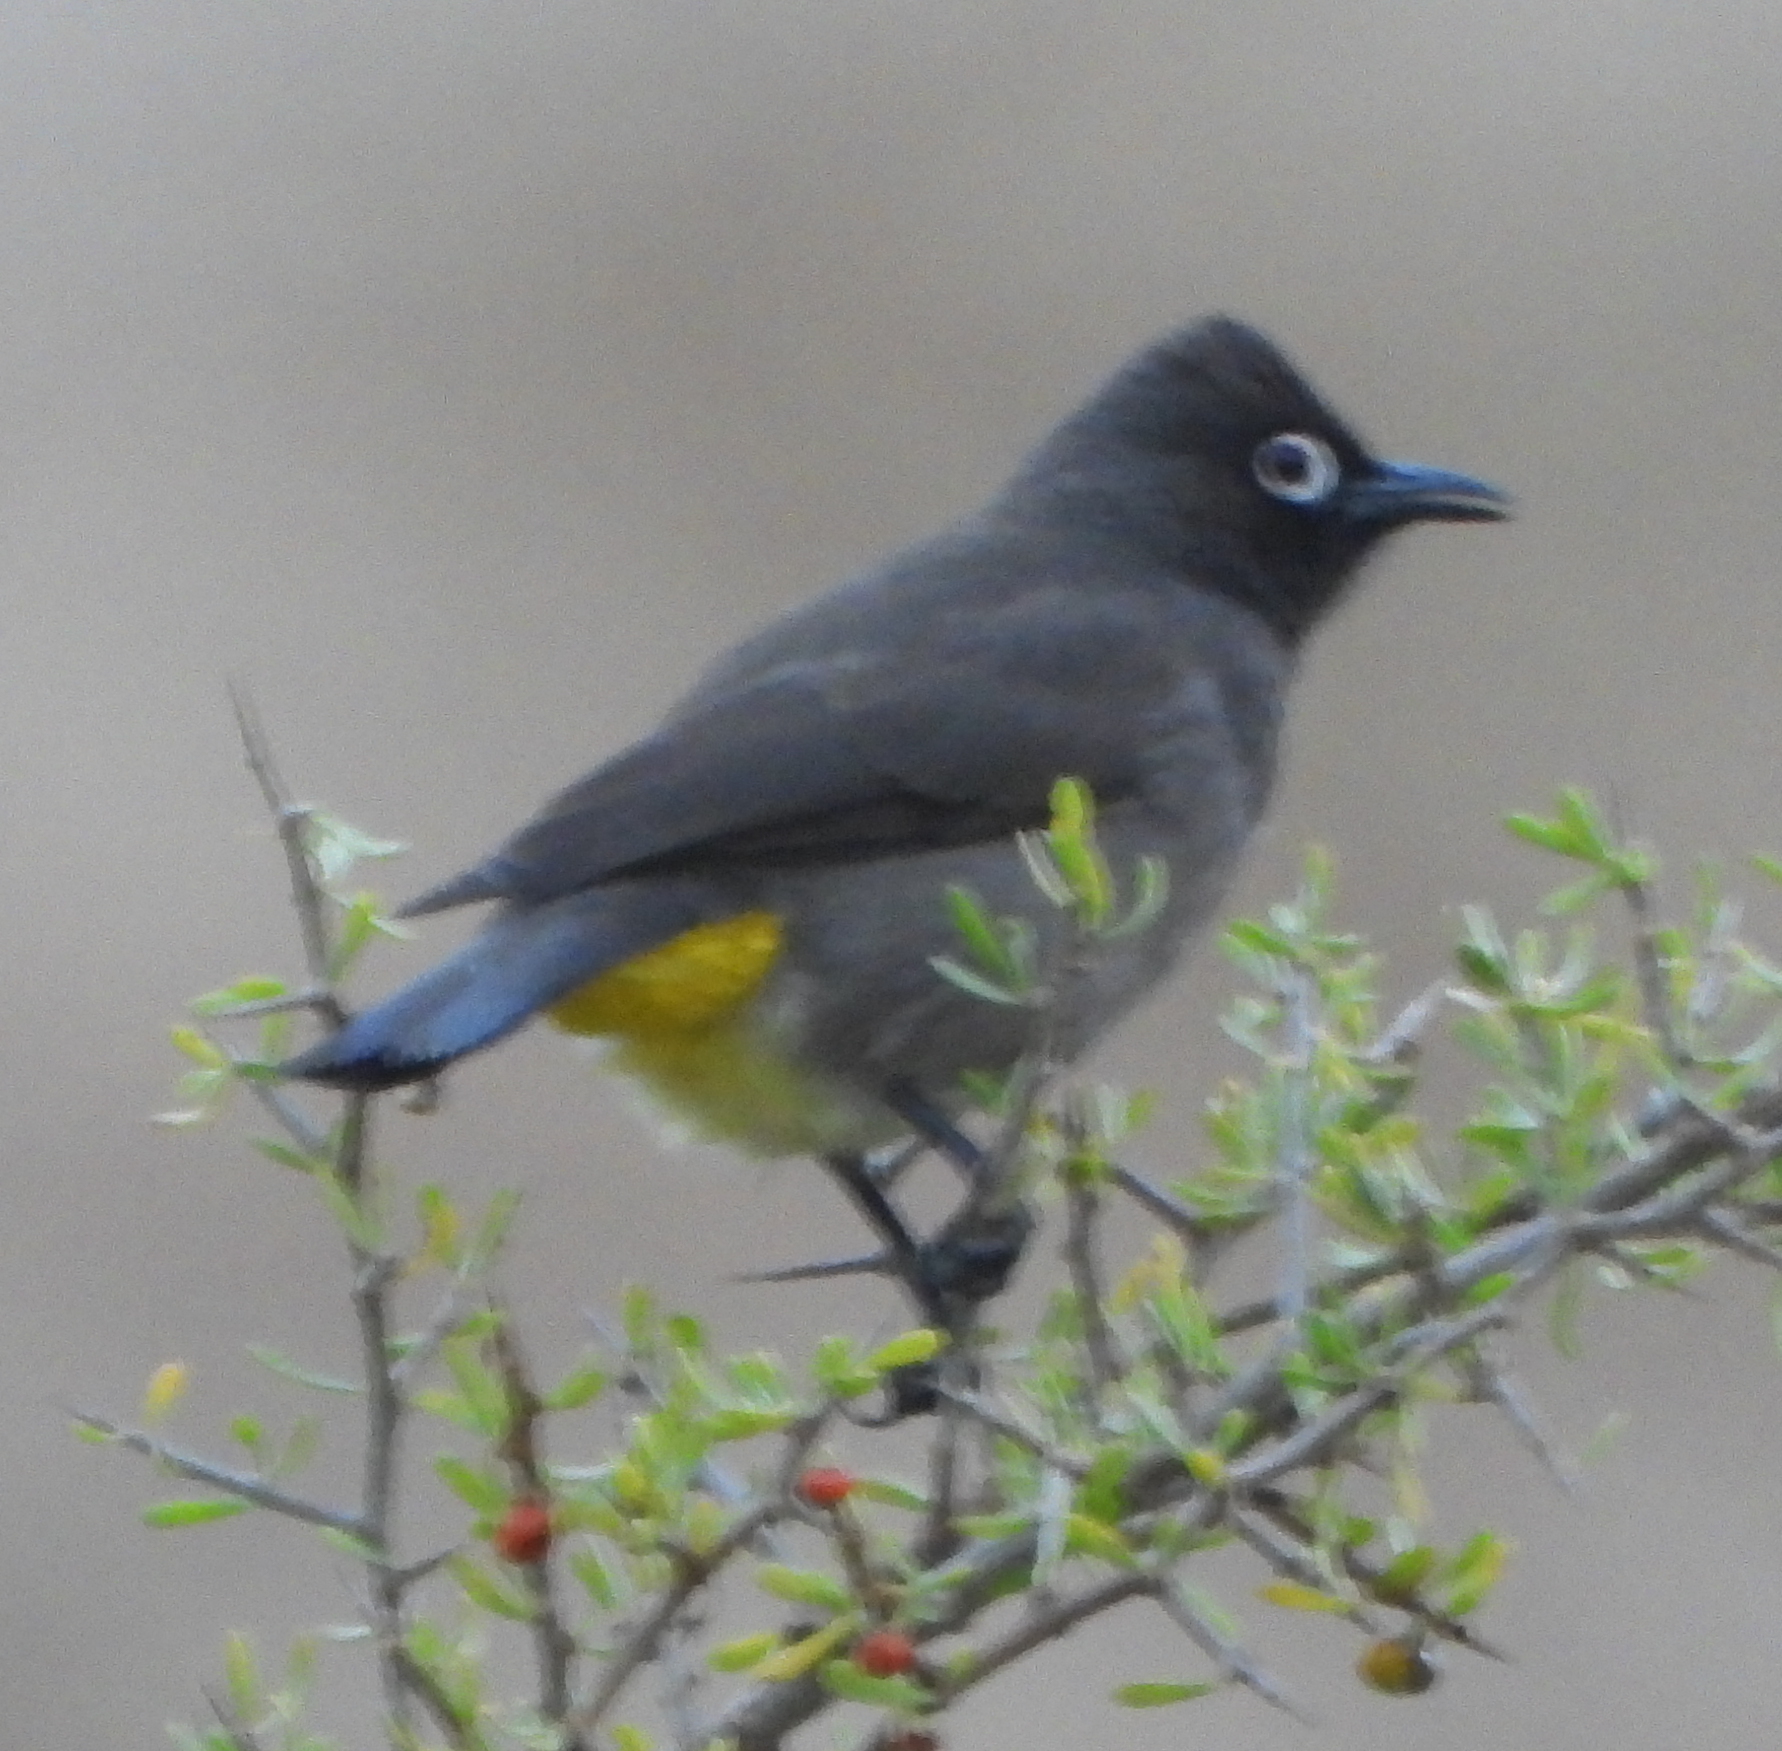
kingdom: Animalia
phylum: Chordata
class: Aves
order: Passeriformes
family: Pycnonotidae
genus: Pycnonotus
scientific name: Pycnonotus capensis
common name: Cape bulbul
